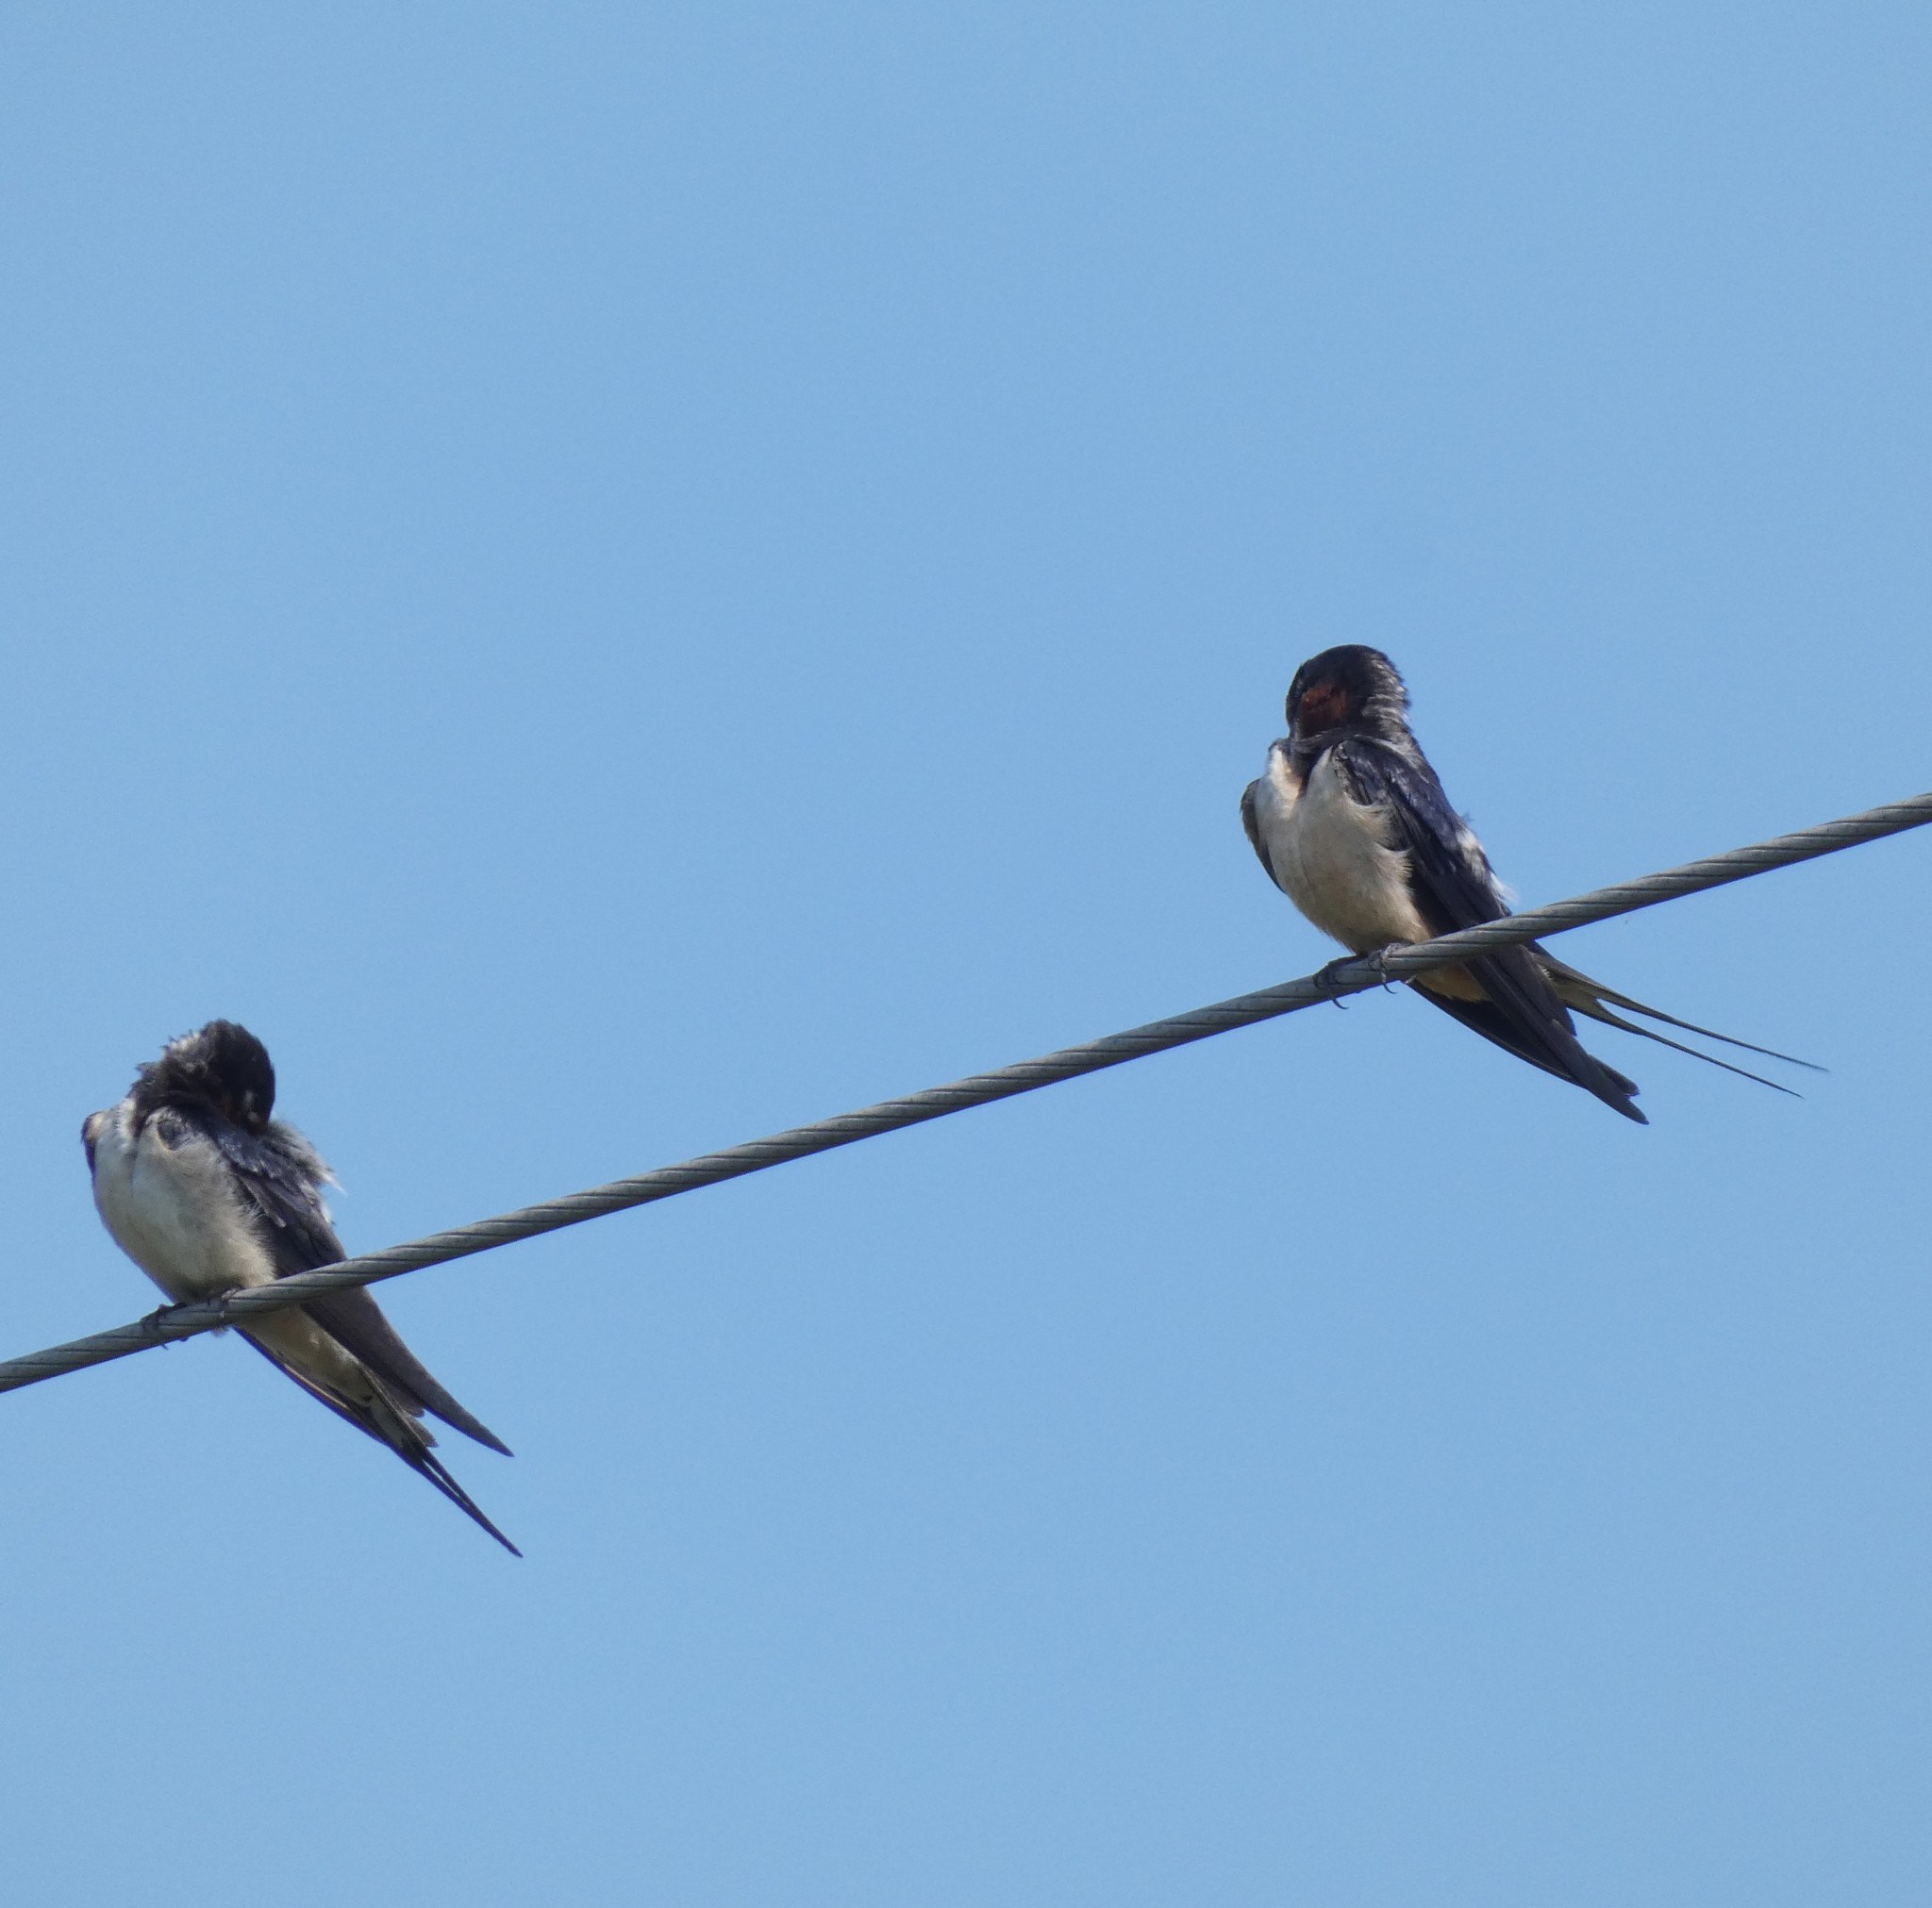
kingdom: Animalia
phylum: Chordata
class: Aves
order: Passeriformes
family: Hirundinidae
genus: Hirundo
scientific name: Hirundo rustica
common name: Barn swallow
